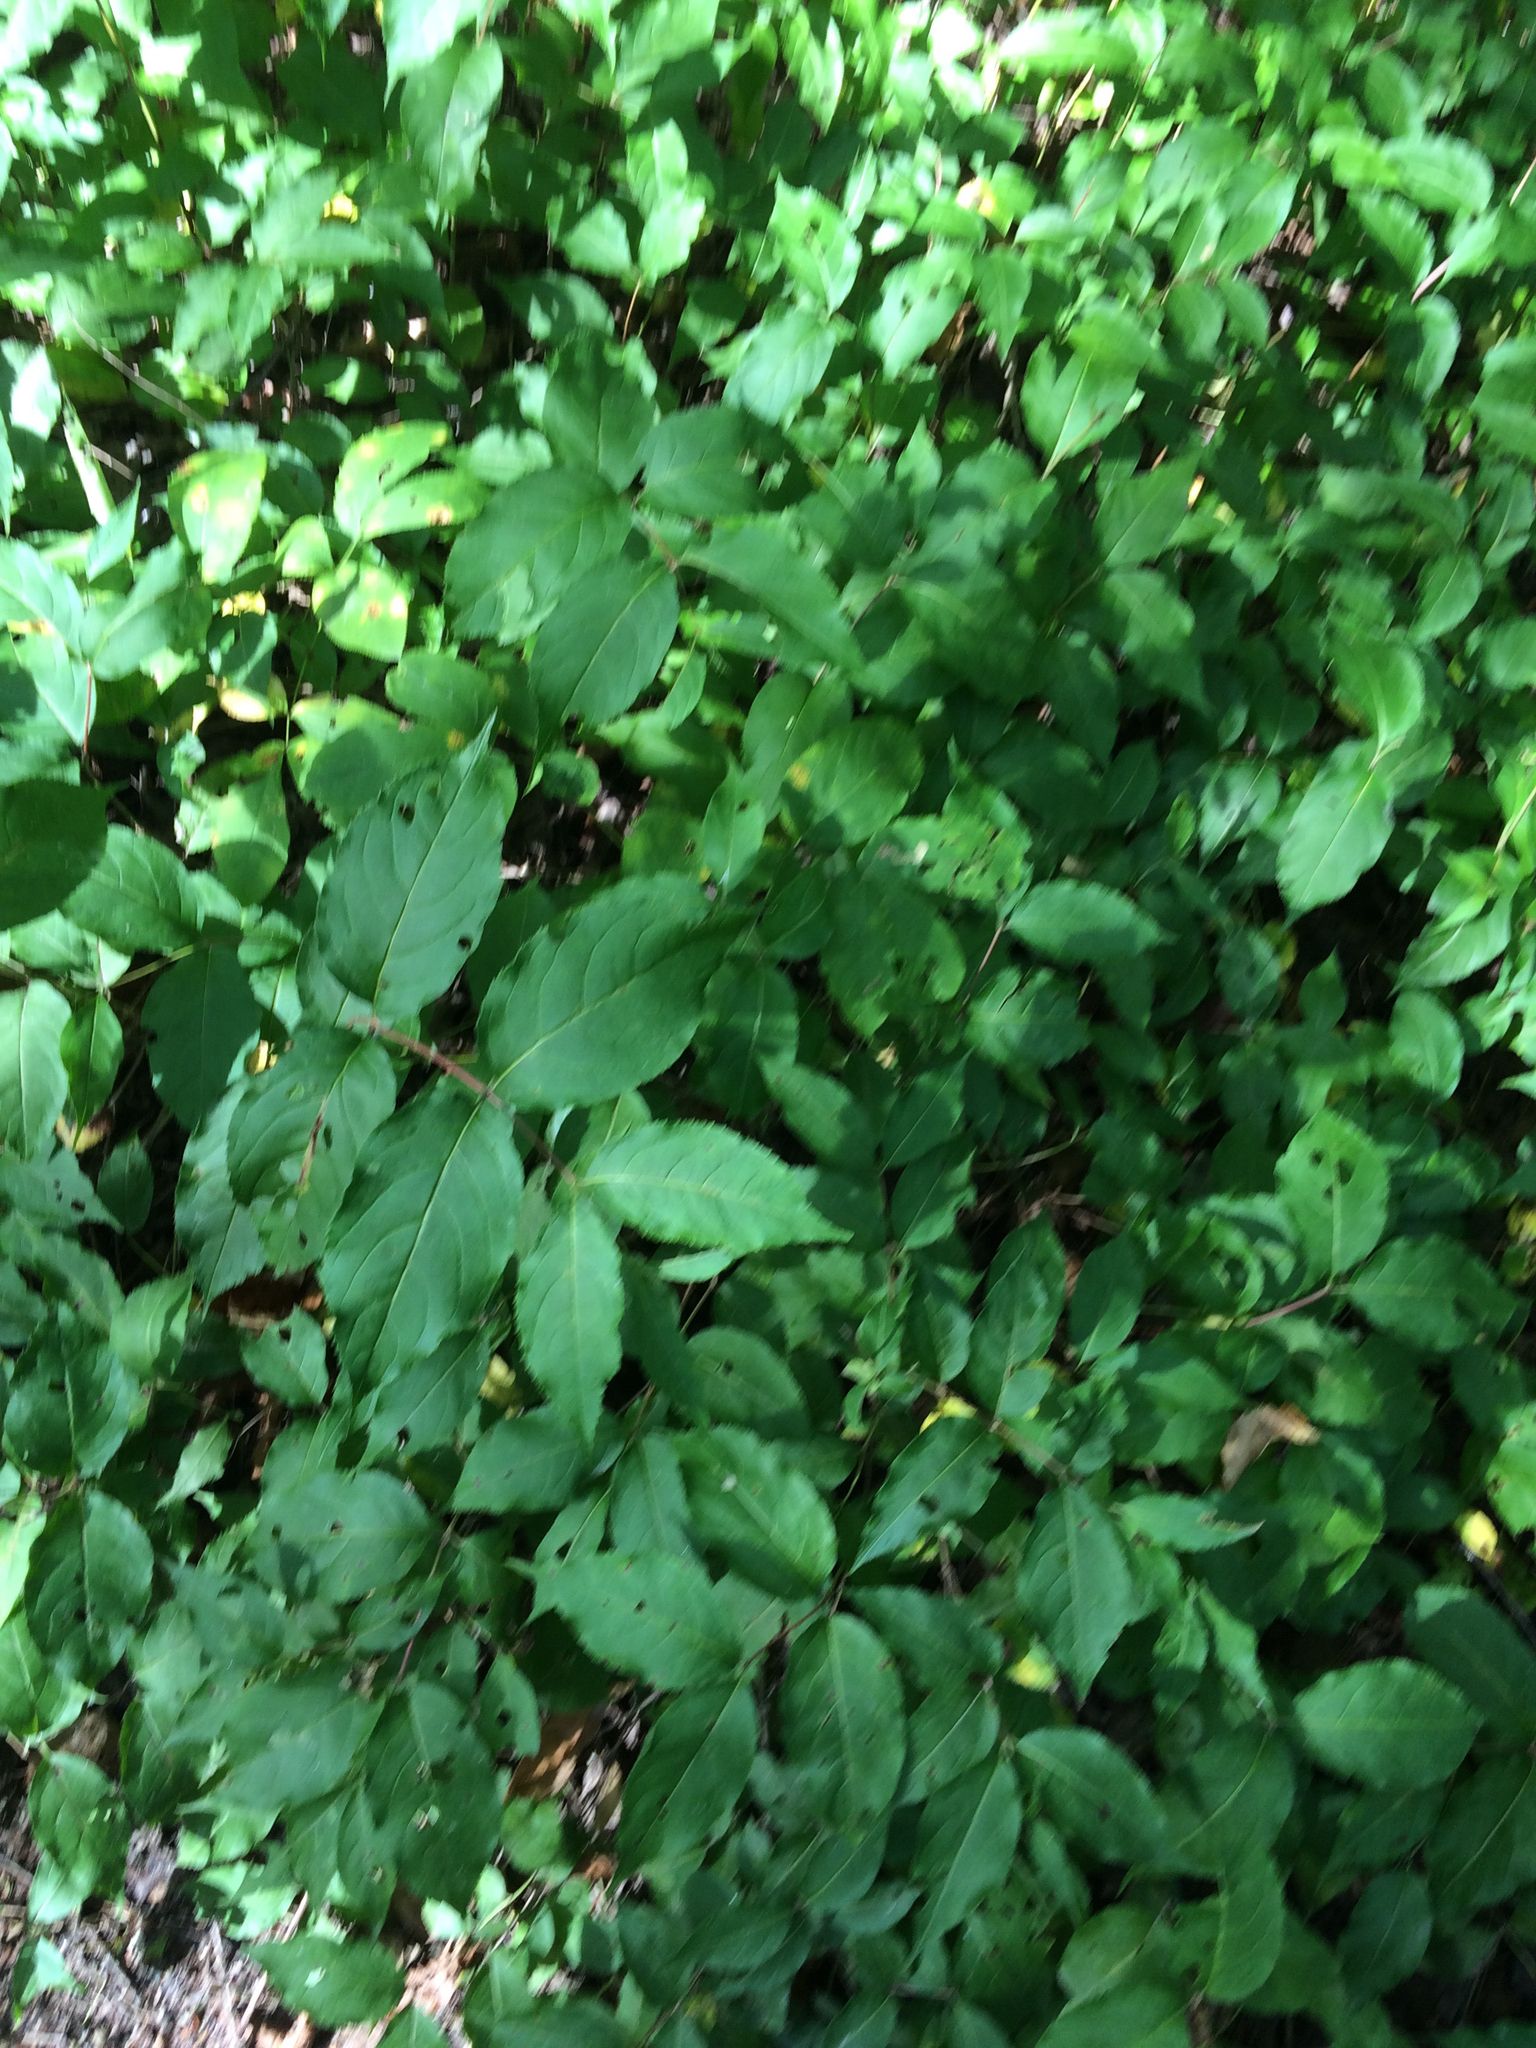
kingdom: Plantae
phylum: Tracheophyta
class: Magnoliopsida
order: Dipsacales
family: Caprifoliaceae
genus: Diervilla
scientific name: Diervilla lonicera
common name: Bush-honeysuckle
